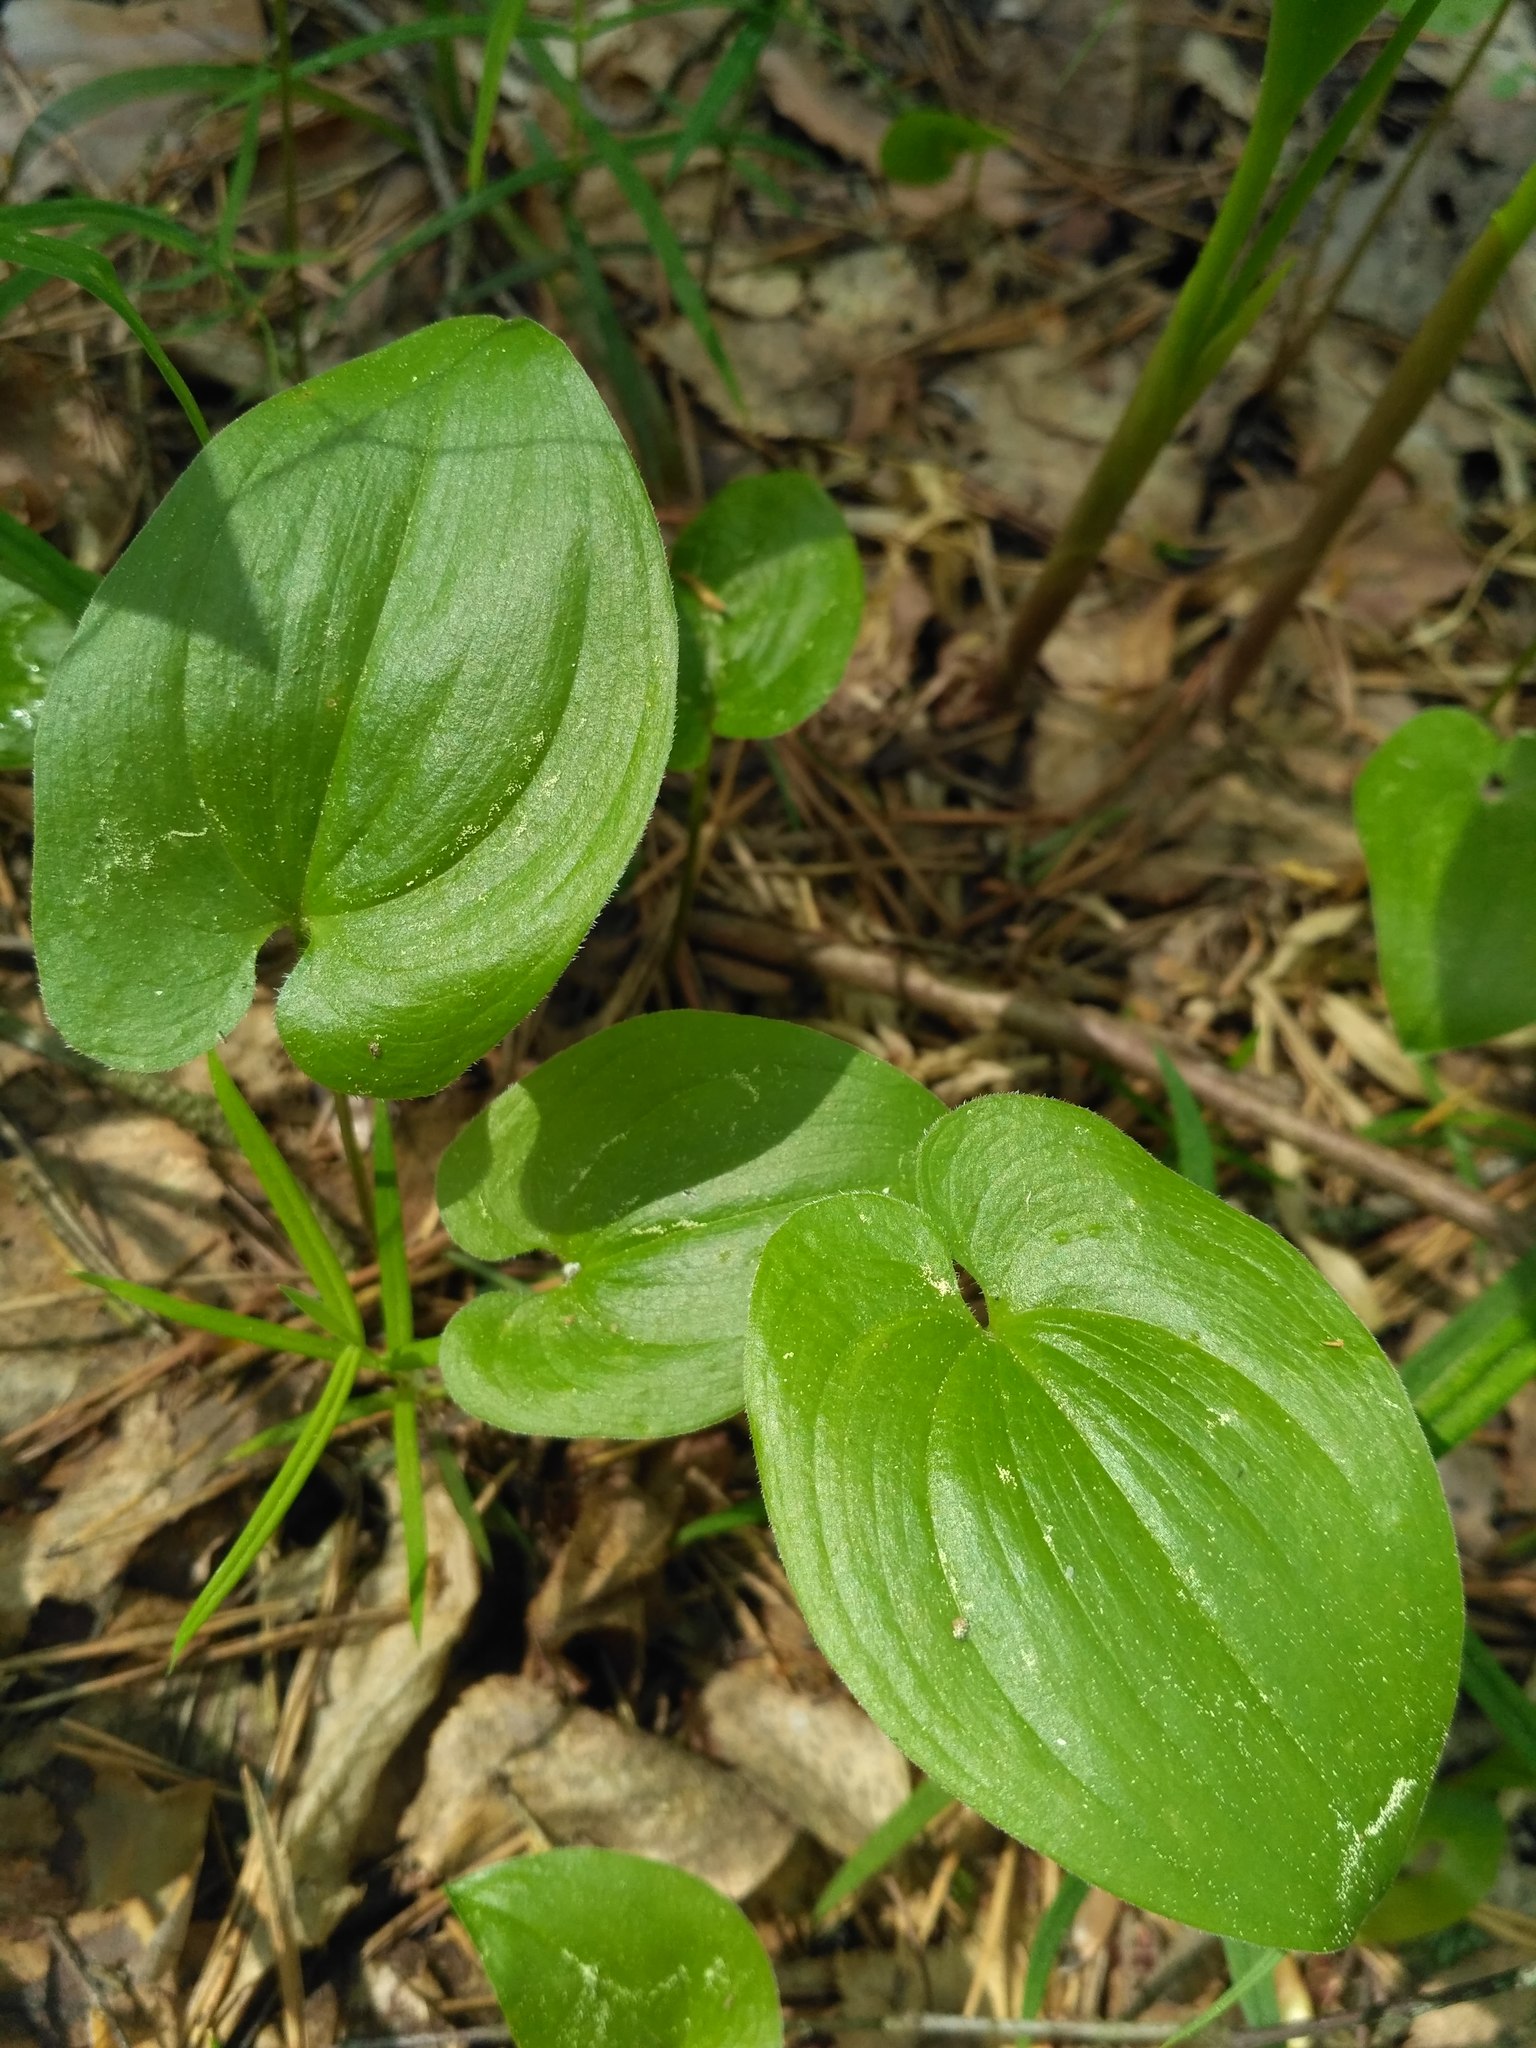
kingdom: Plantae
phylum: Tracheophyta
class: Liliopsida
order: Asparagales
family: Asparagaceae
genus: Maianthemum
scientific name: Maianthemum bifolium
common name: May lily
